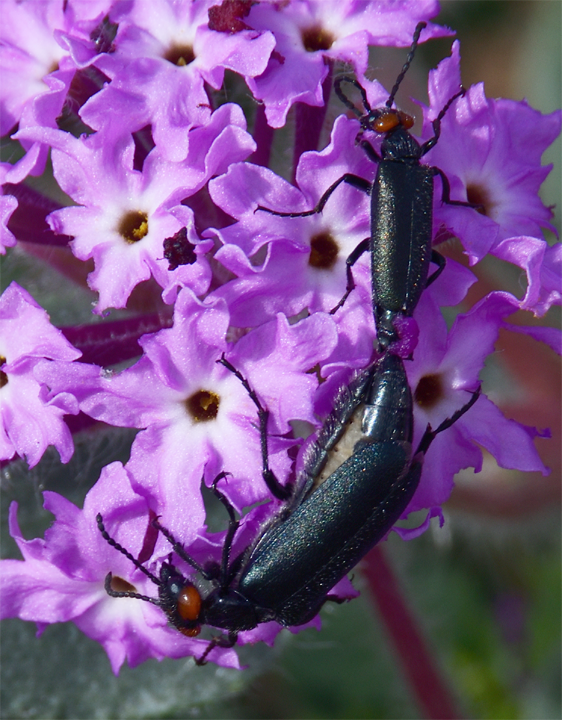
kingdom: Animalia
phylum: Arthropoda
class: Insecta
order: Coleoptera
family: Meloidae
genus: Lytta
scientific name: Lytta auriculata
